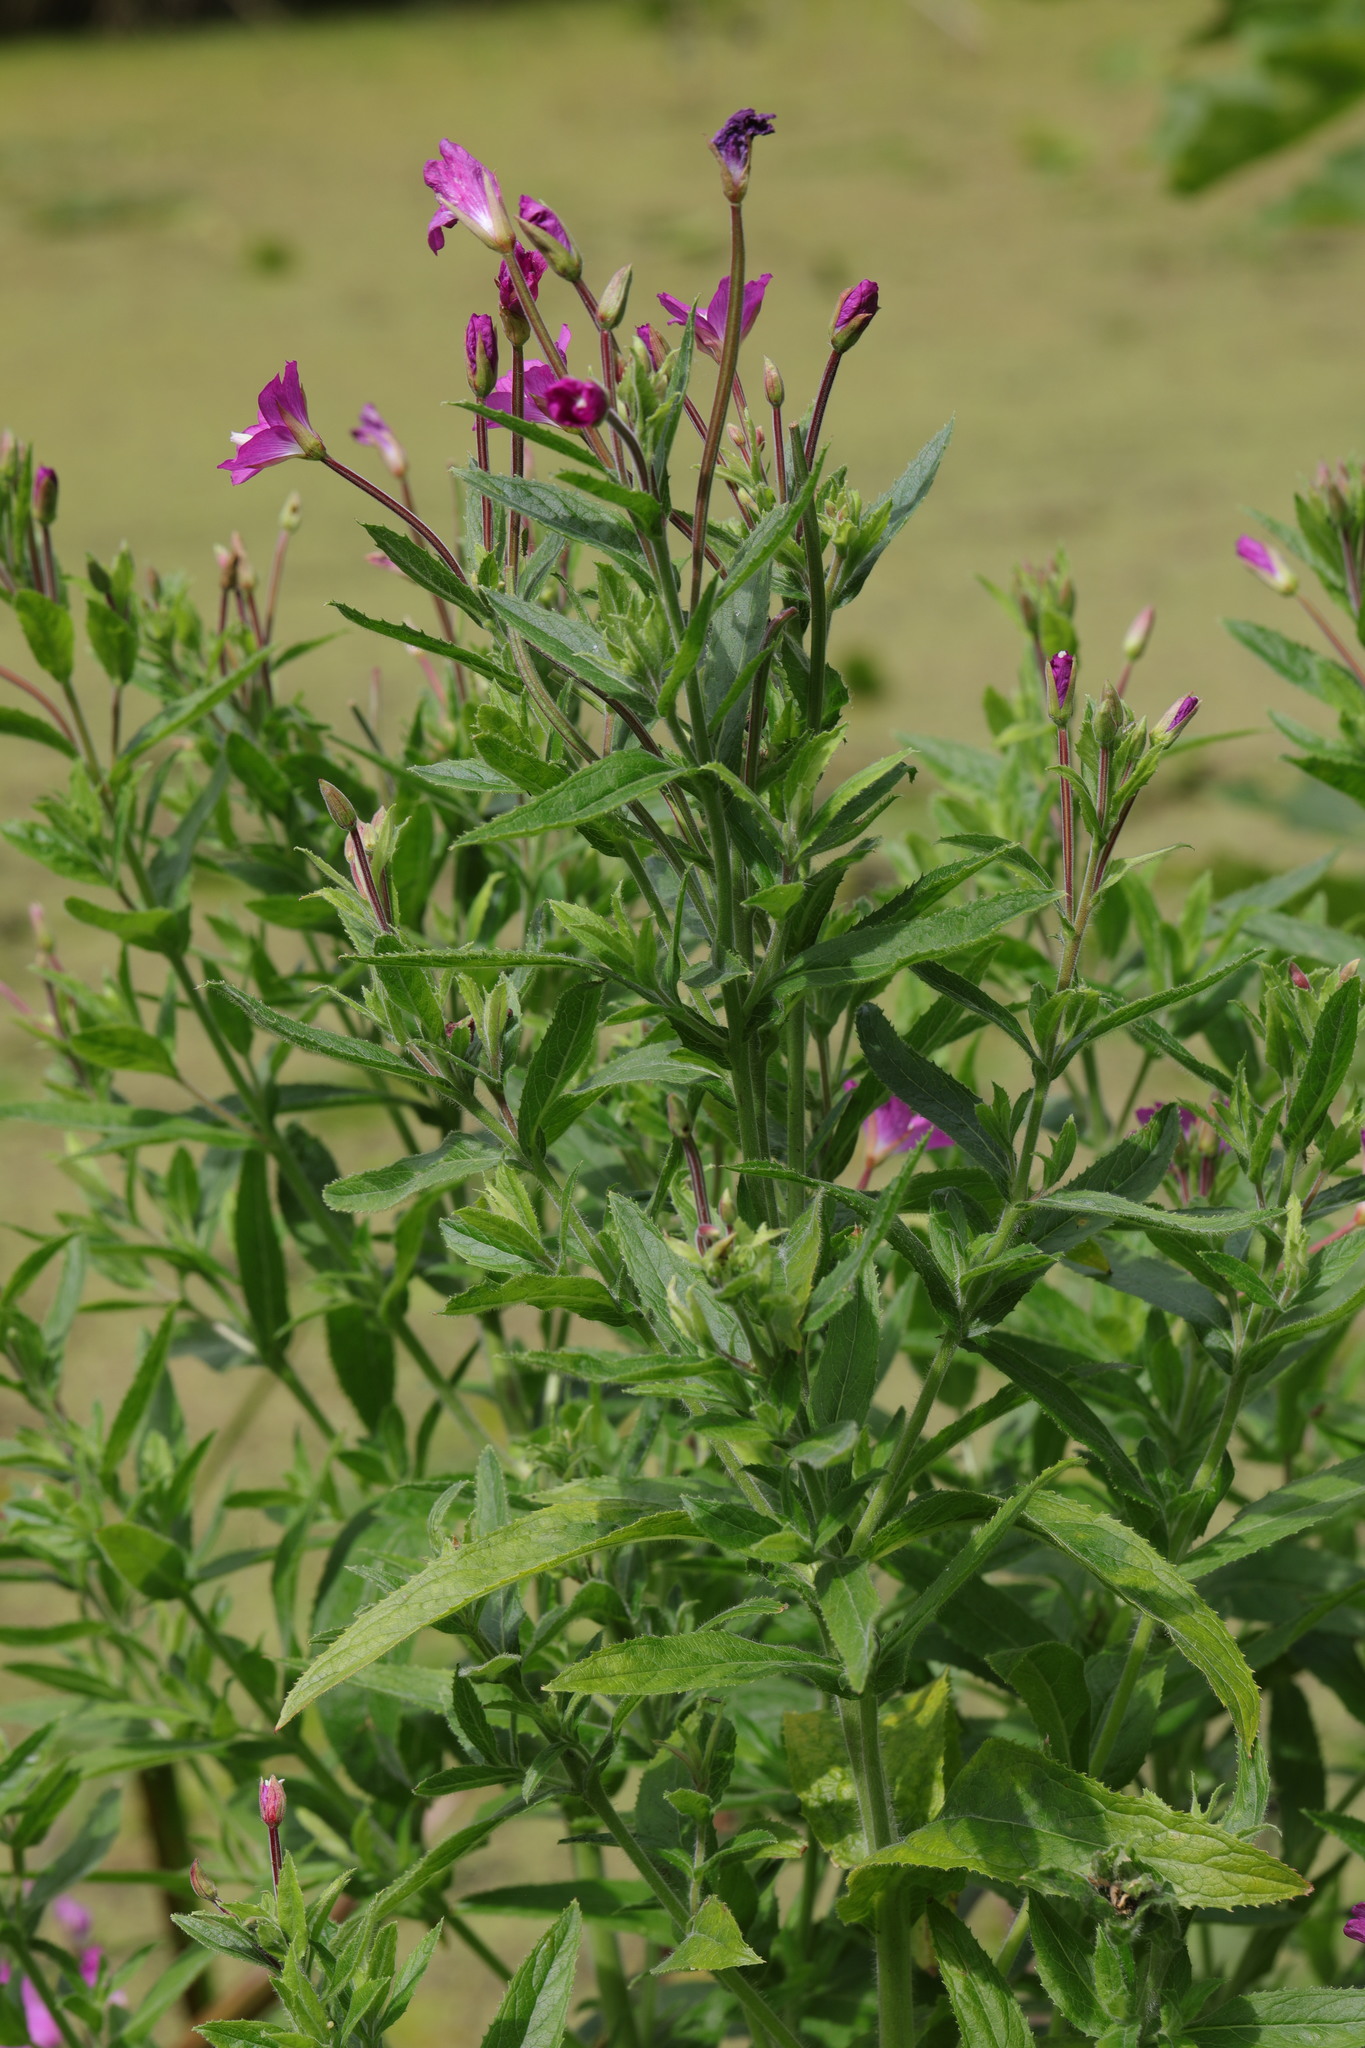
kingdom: Plantae
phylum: Tracheophyta
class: Magnoliopsida
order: Myrtales
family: Onagraceae
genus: Epilobium
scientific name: Epilobium hirsutum
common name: Great willowherb
